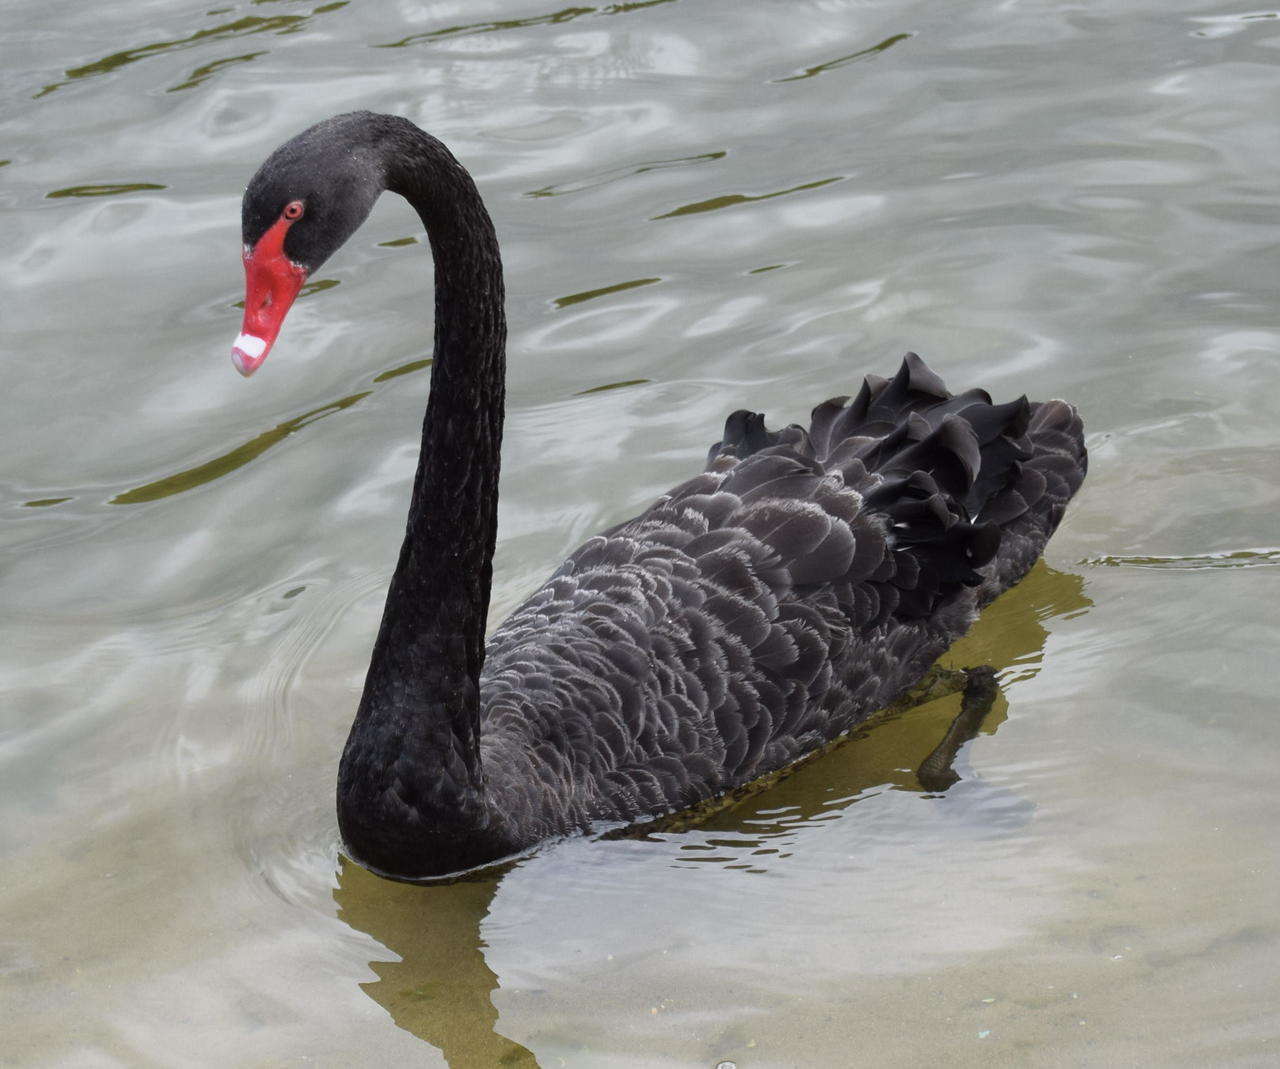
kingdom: Animalia
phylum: Chordata
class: Aves
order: Anseriformes
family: Anatidae
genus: Cygnus
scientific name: Cygnus atratus
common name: Black swan
